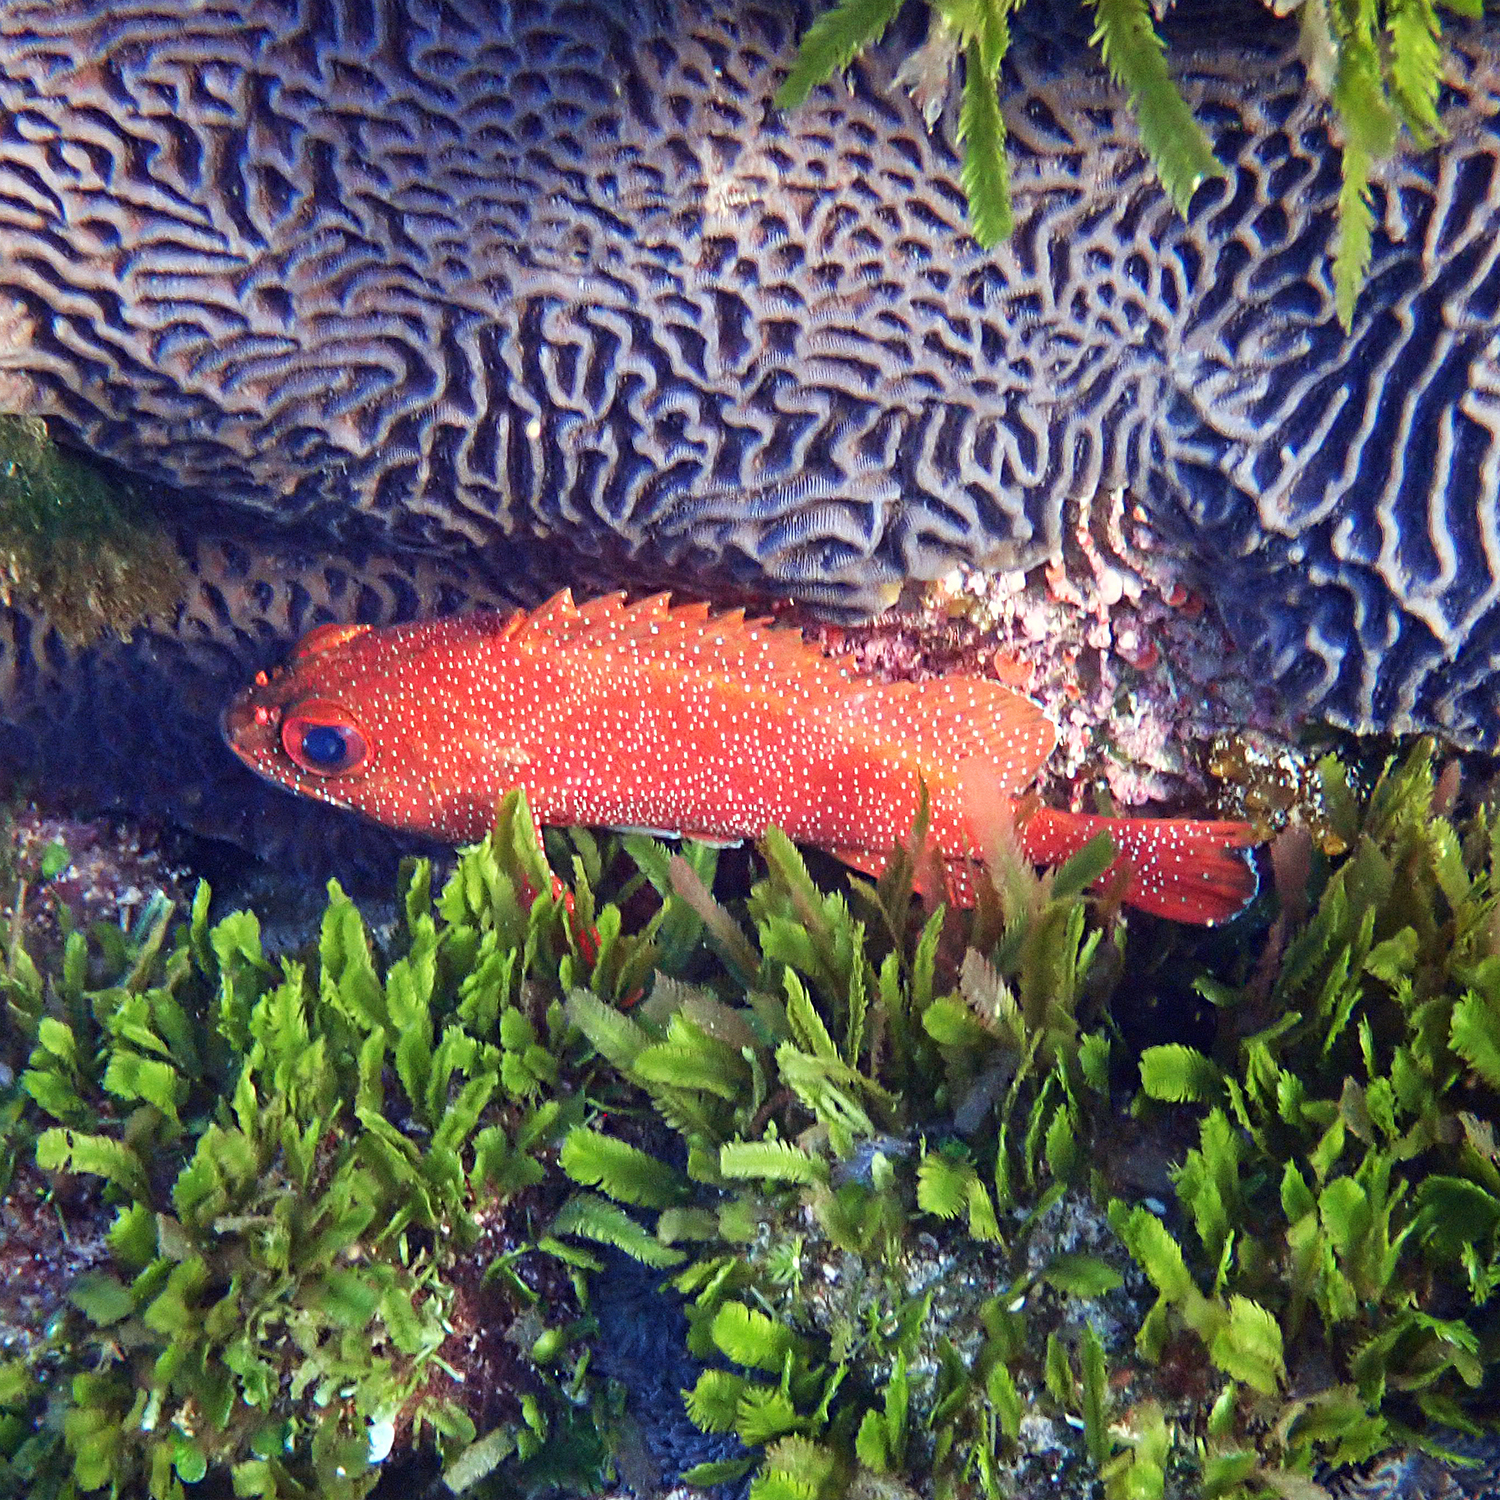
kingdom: Animalia
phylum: Chordata
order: Perciformes
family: Serranidae
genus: Trachypoma
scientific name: Trachypoma macracanthus
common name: Toadstool grouper
